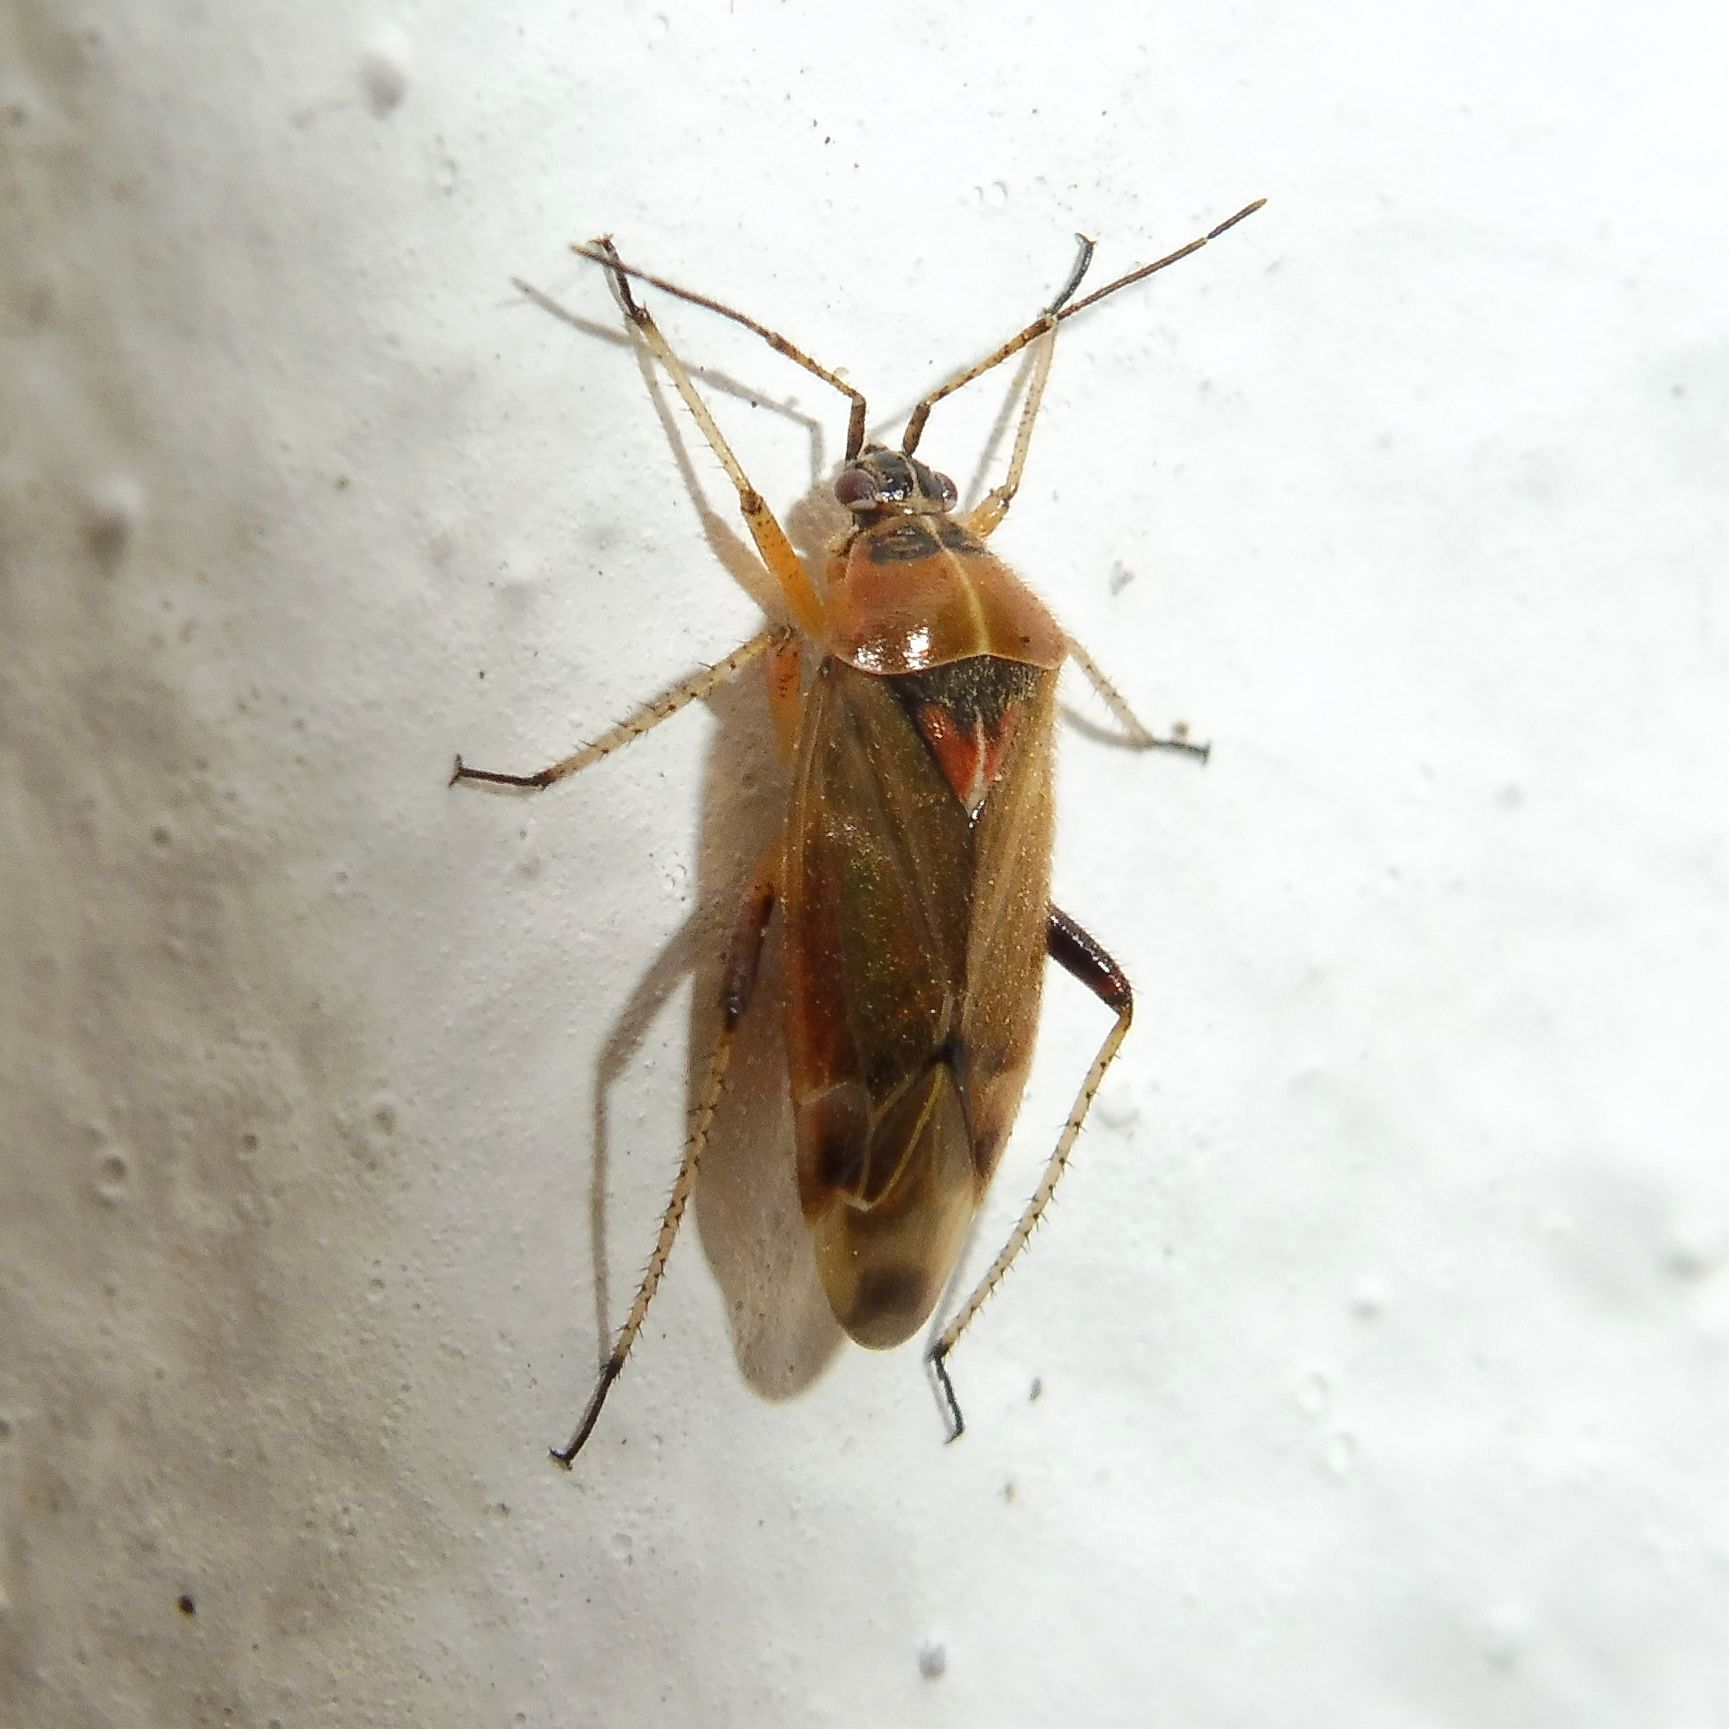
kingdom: Animalia
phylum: Arthropoda
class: Insecta
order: Hemiptera
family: Miridae
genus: Harpocera
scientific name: Harpocera thoracica
